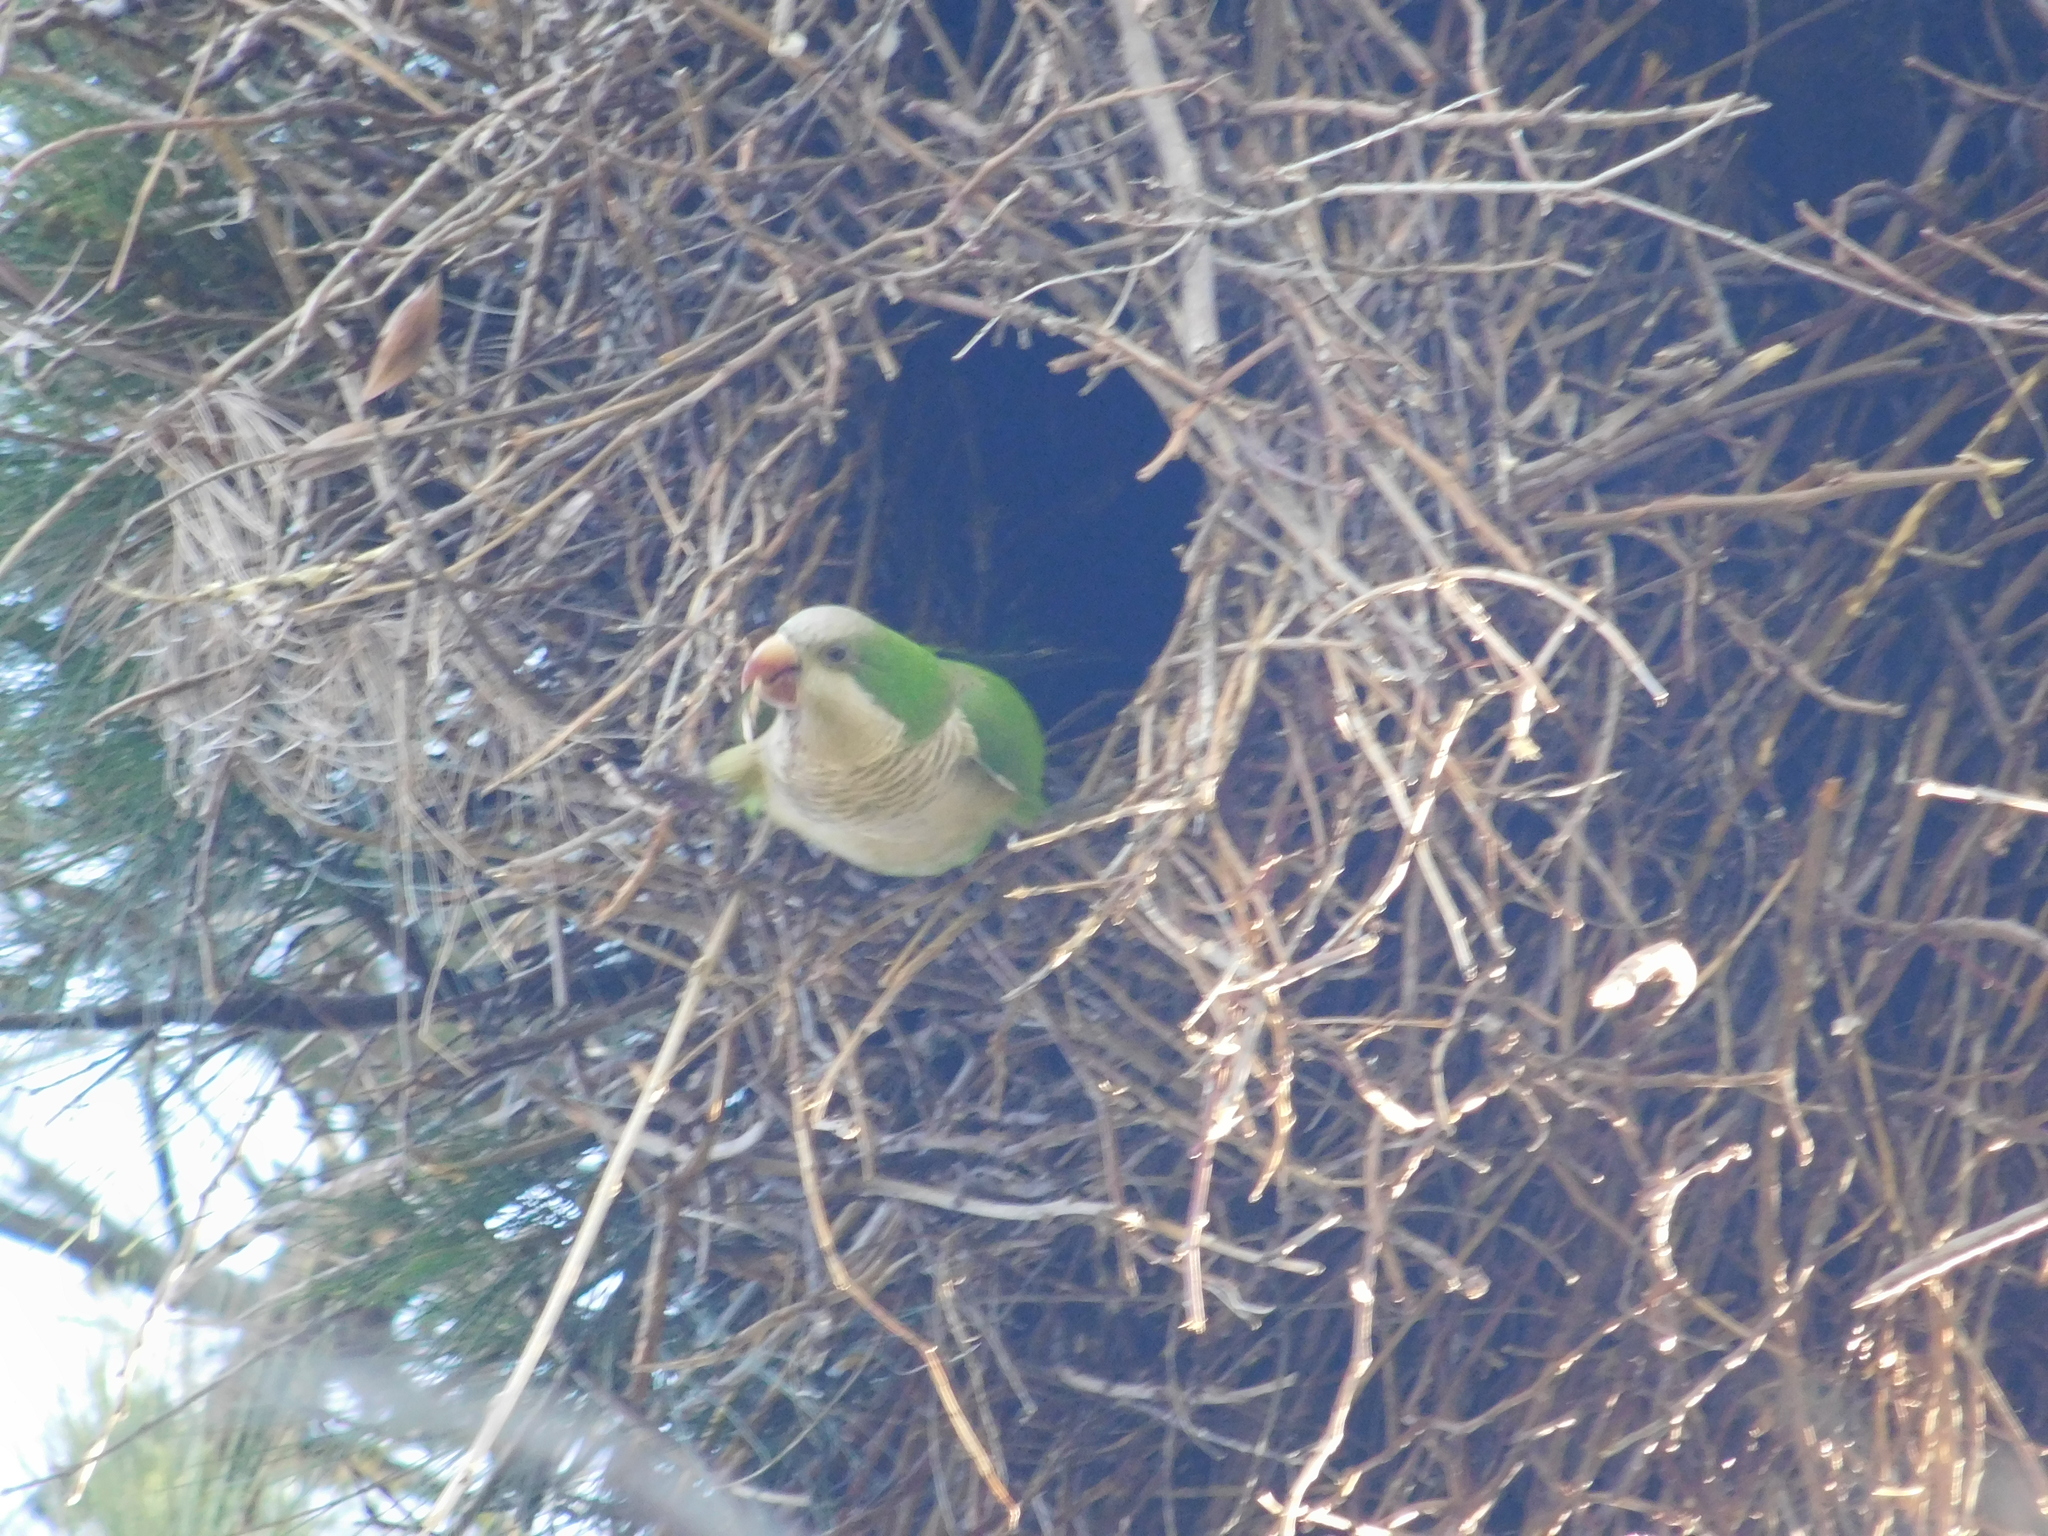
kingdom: Animalia
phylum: Chordata
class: Aves
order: Psittaciformes
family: Psittacidae
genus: Myiopsitta
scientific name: Myiopsitta monachus
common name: Monk parakeet
